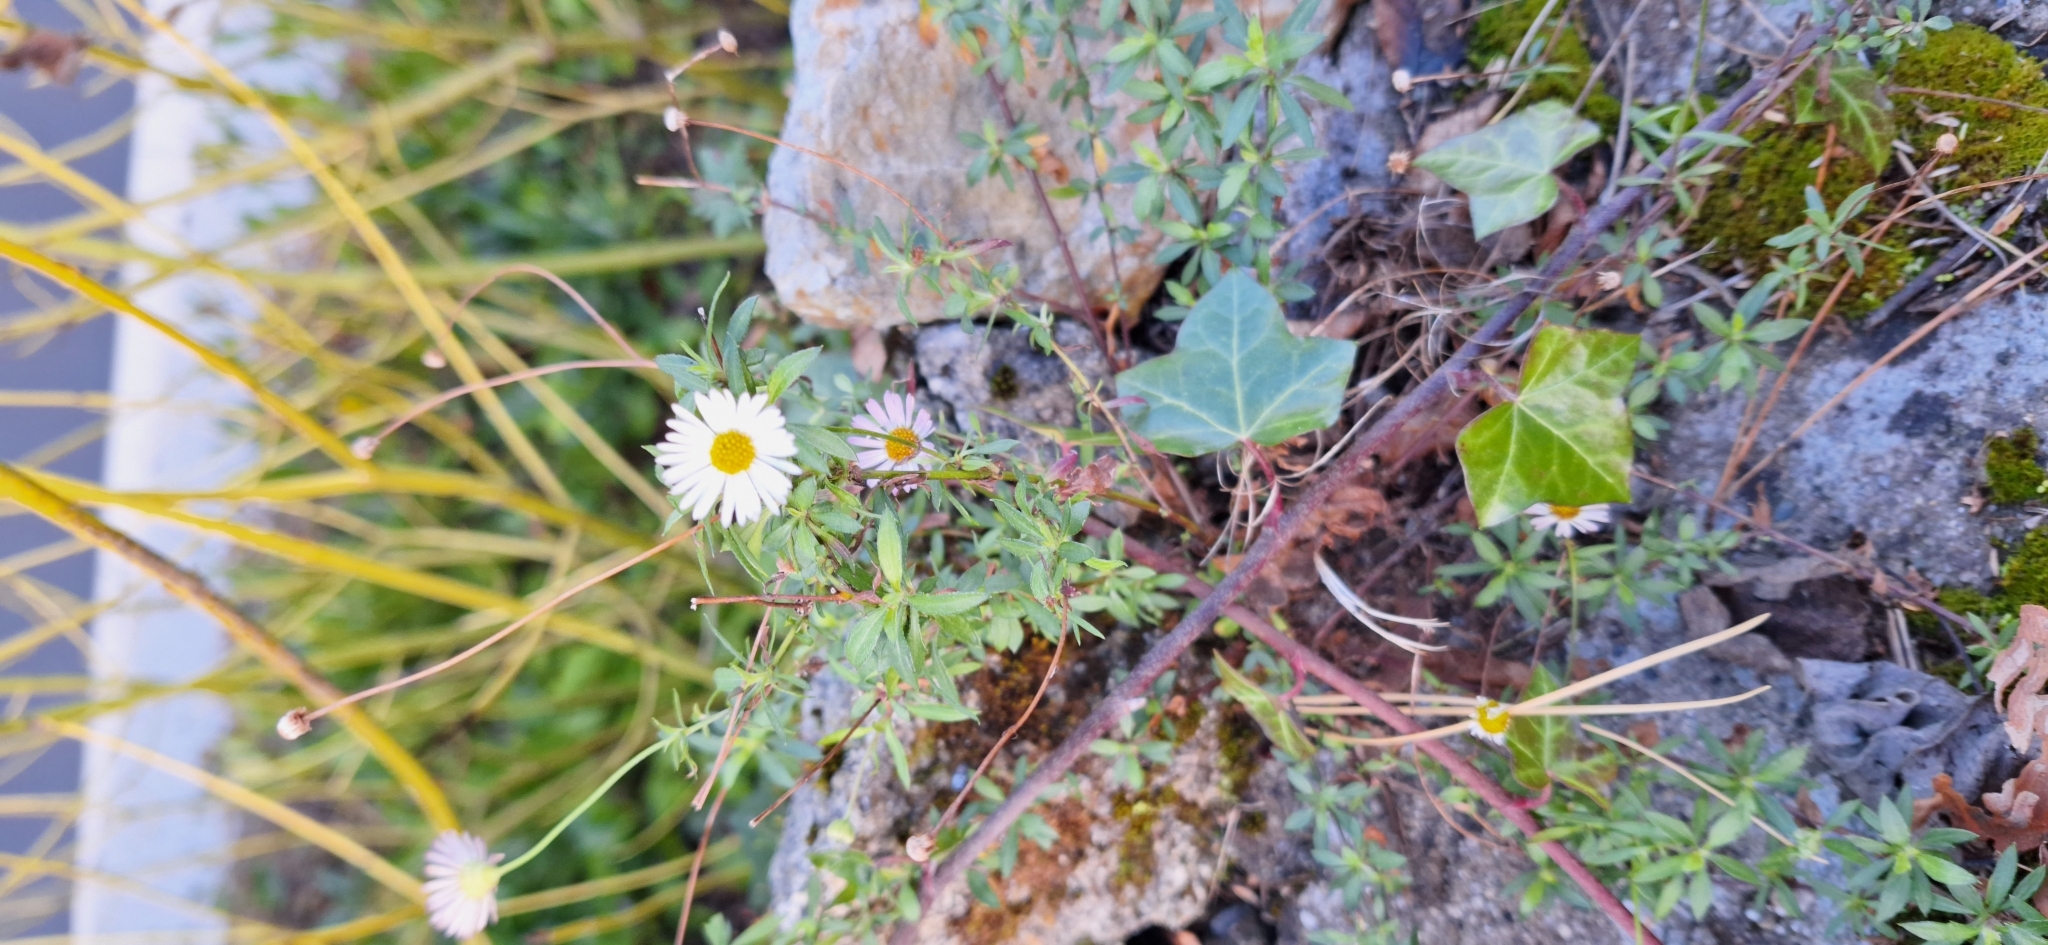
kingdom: Plantae
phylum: Tracheophyta
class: Magnoliopsida
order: Asterales
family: Asteraceae
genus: Erigeron
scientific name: Erigeron karvinskianus
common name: Mexican fleabane
